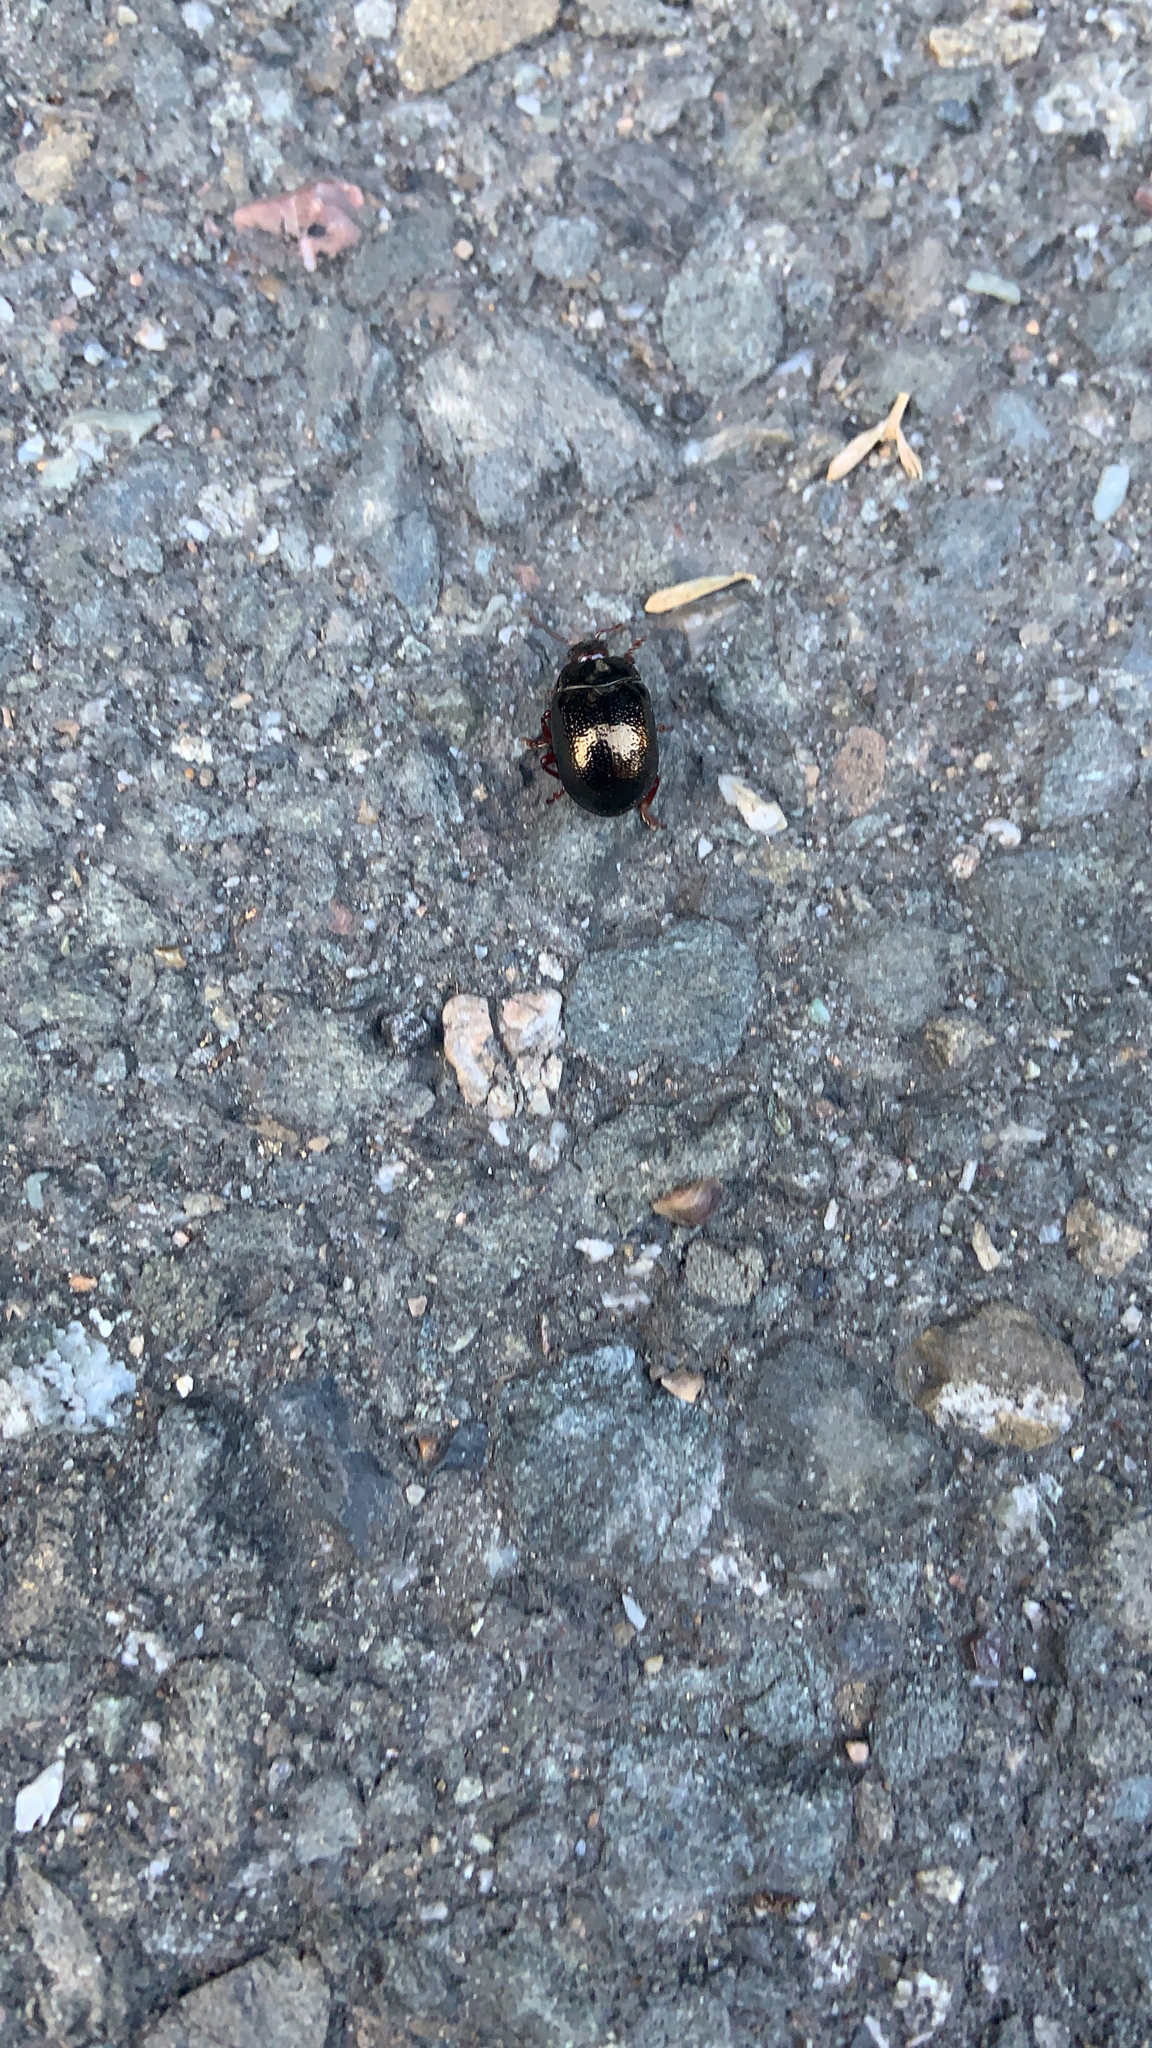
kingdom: Animalia
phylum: Arthropoda
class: Insecta
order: Coleoptera
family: Chrysomelidae
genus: Chrysolina
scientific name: Chrysolina bankii
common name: Leaf beetle
